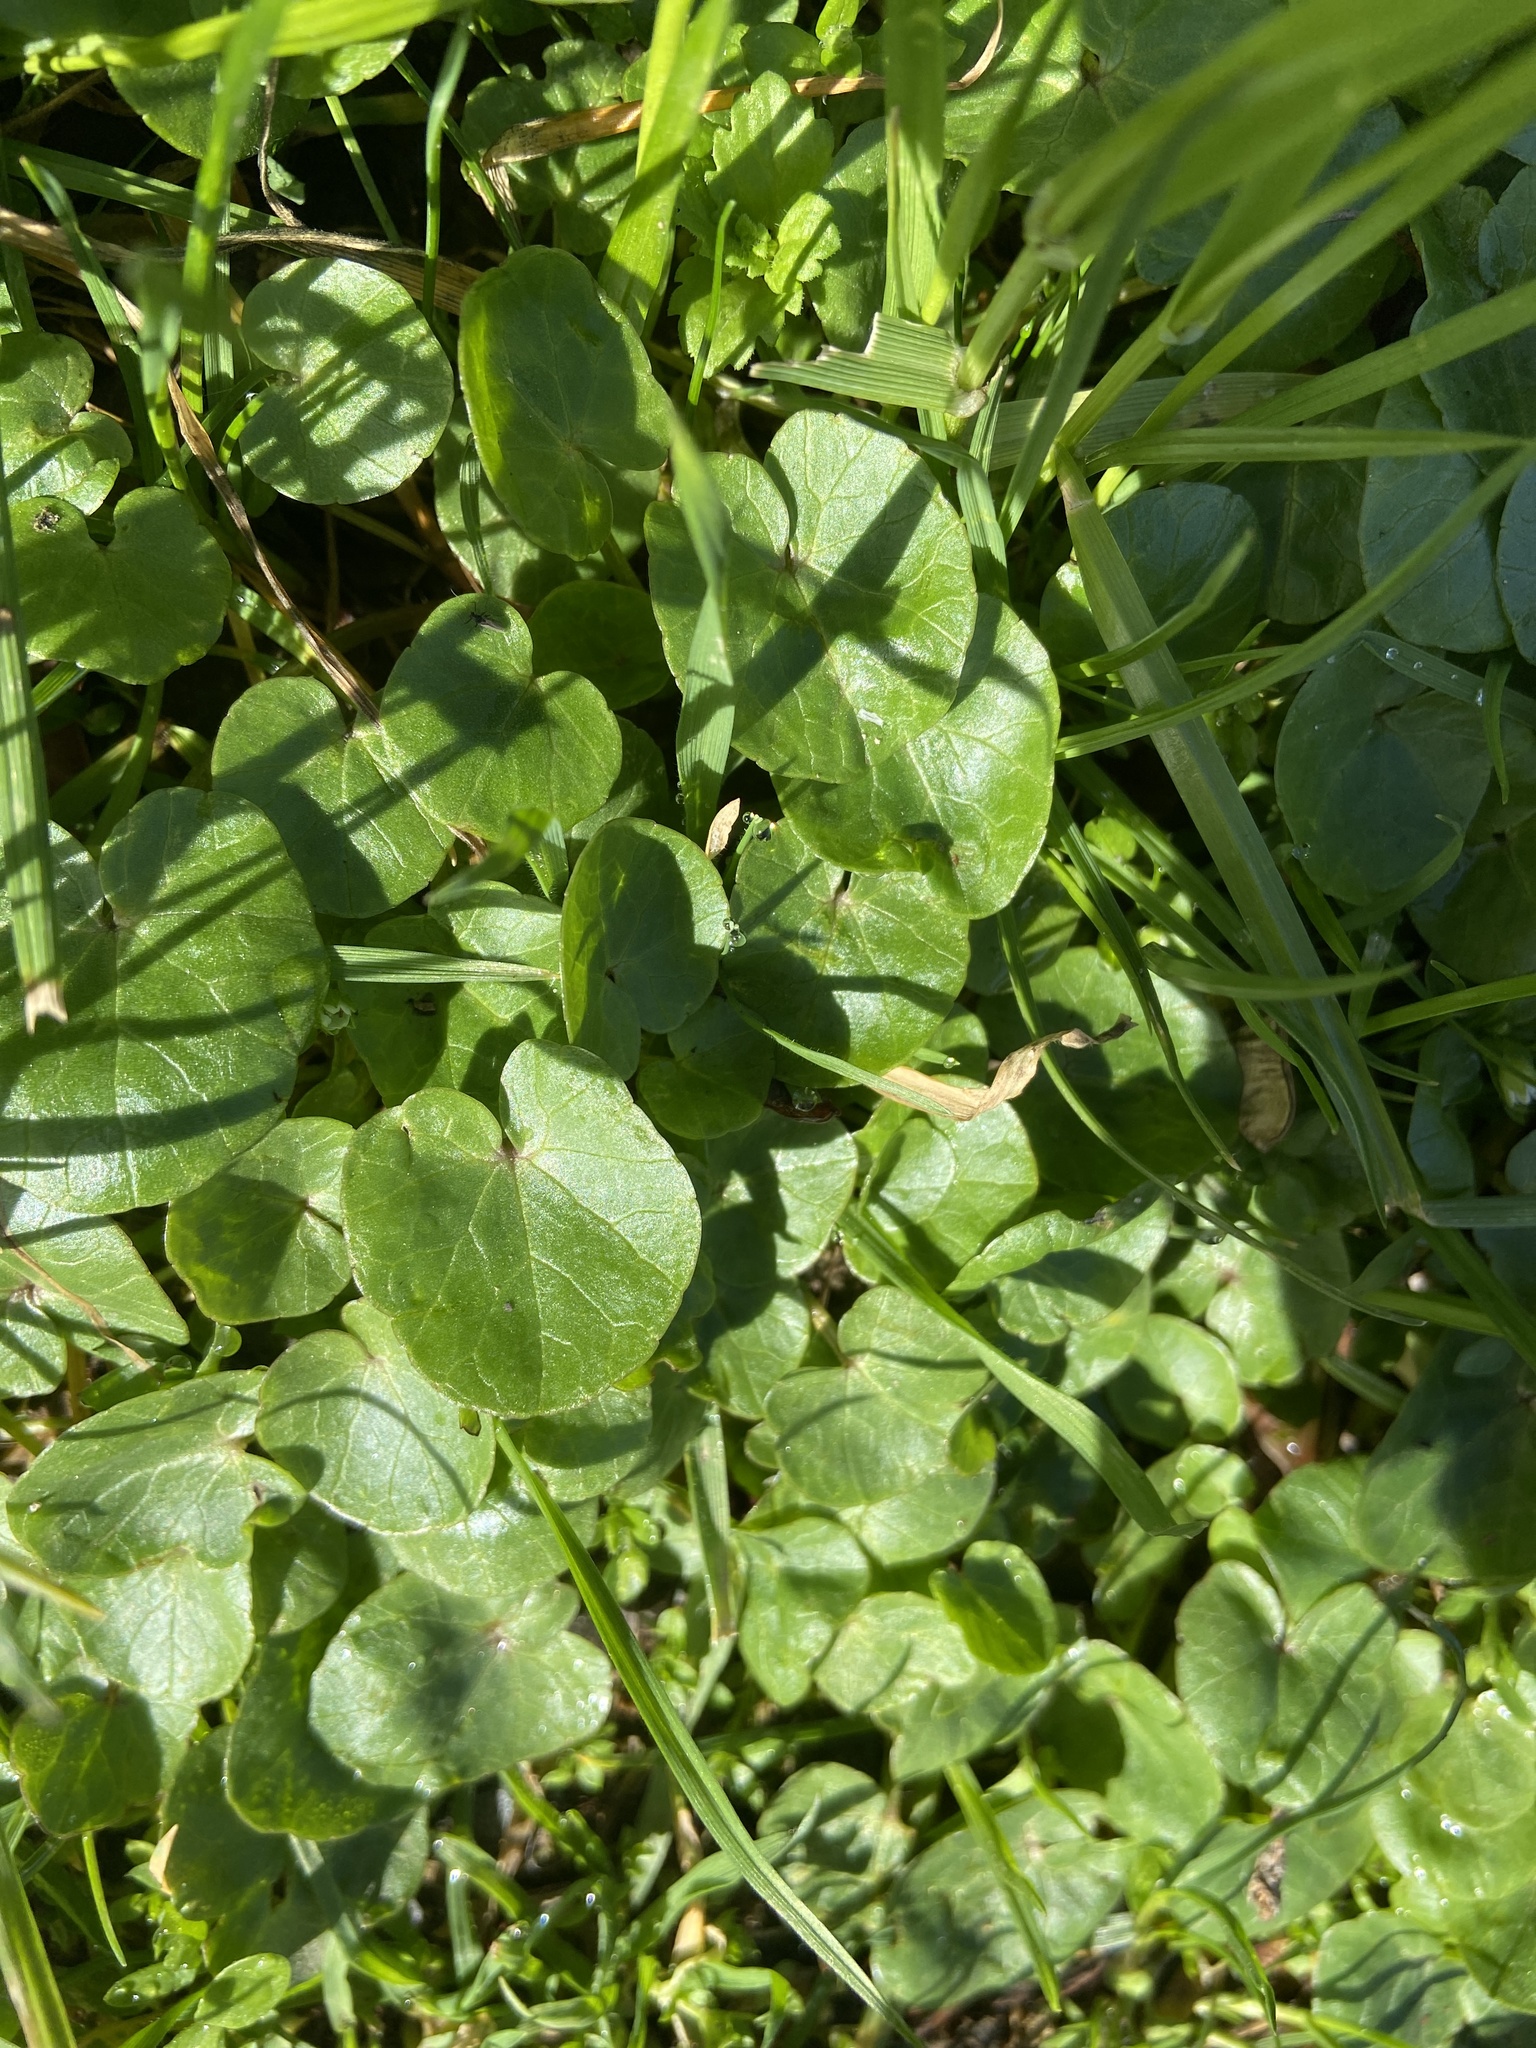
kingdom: Plantae
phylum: Tracheophyta
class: Magnoliopsida
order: Ranunculales
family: Ranunculaceae
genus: Ficaria
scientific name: Ficaria verna
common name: Lesser celandine
